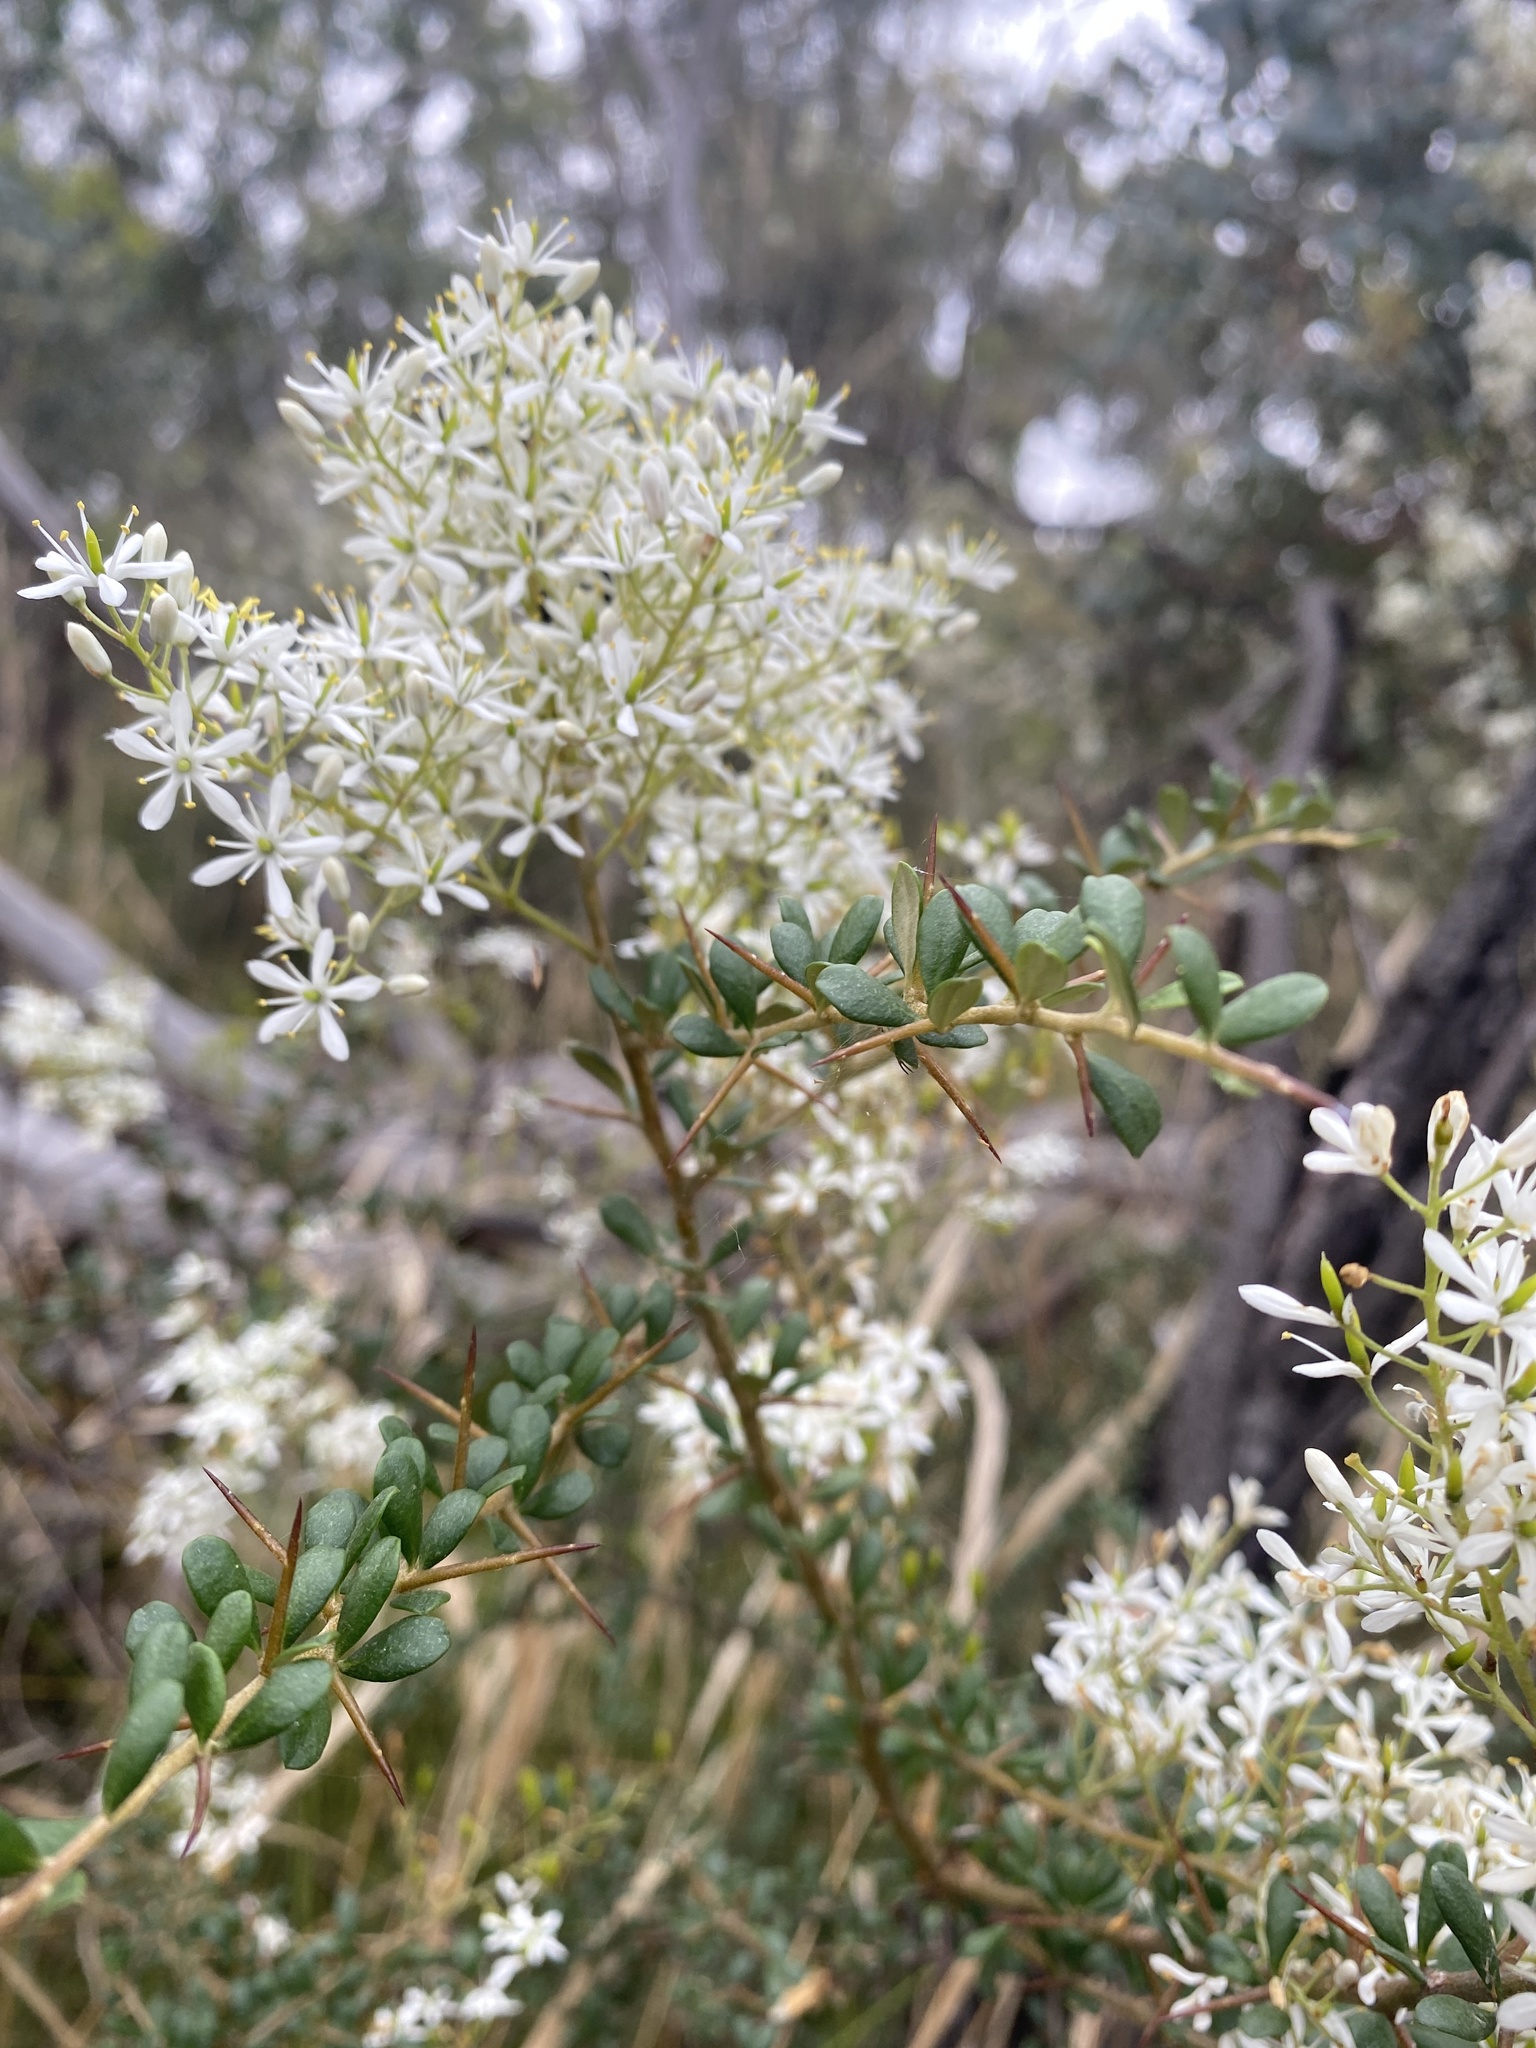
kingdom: Plantae
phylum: Tracheophyta
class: Magnoliopsida
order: Apiales
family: Pittosporaceae
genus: Bursaria
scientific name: Bursaria spinosa
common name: Australian blackthorn
